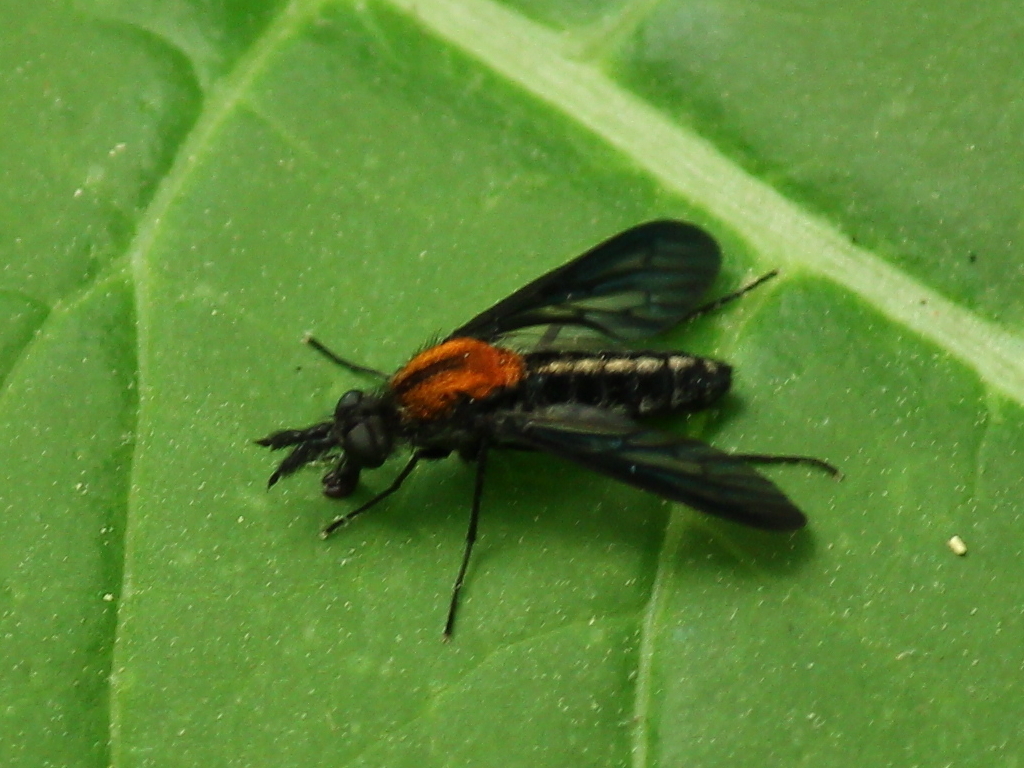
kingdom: Animalia
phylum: Arthropoda
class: Insecta
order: Diptera
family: Bombyliidae
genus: Aldrichia
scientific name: Aldrichia auripuncta
